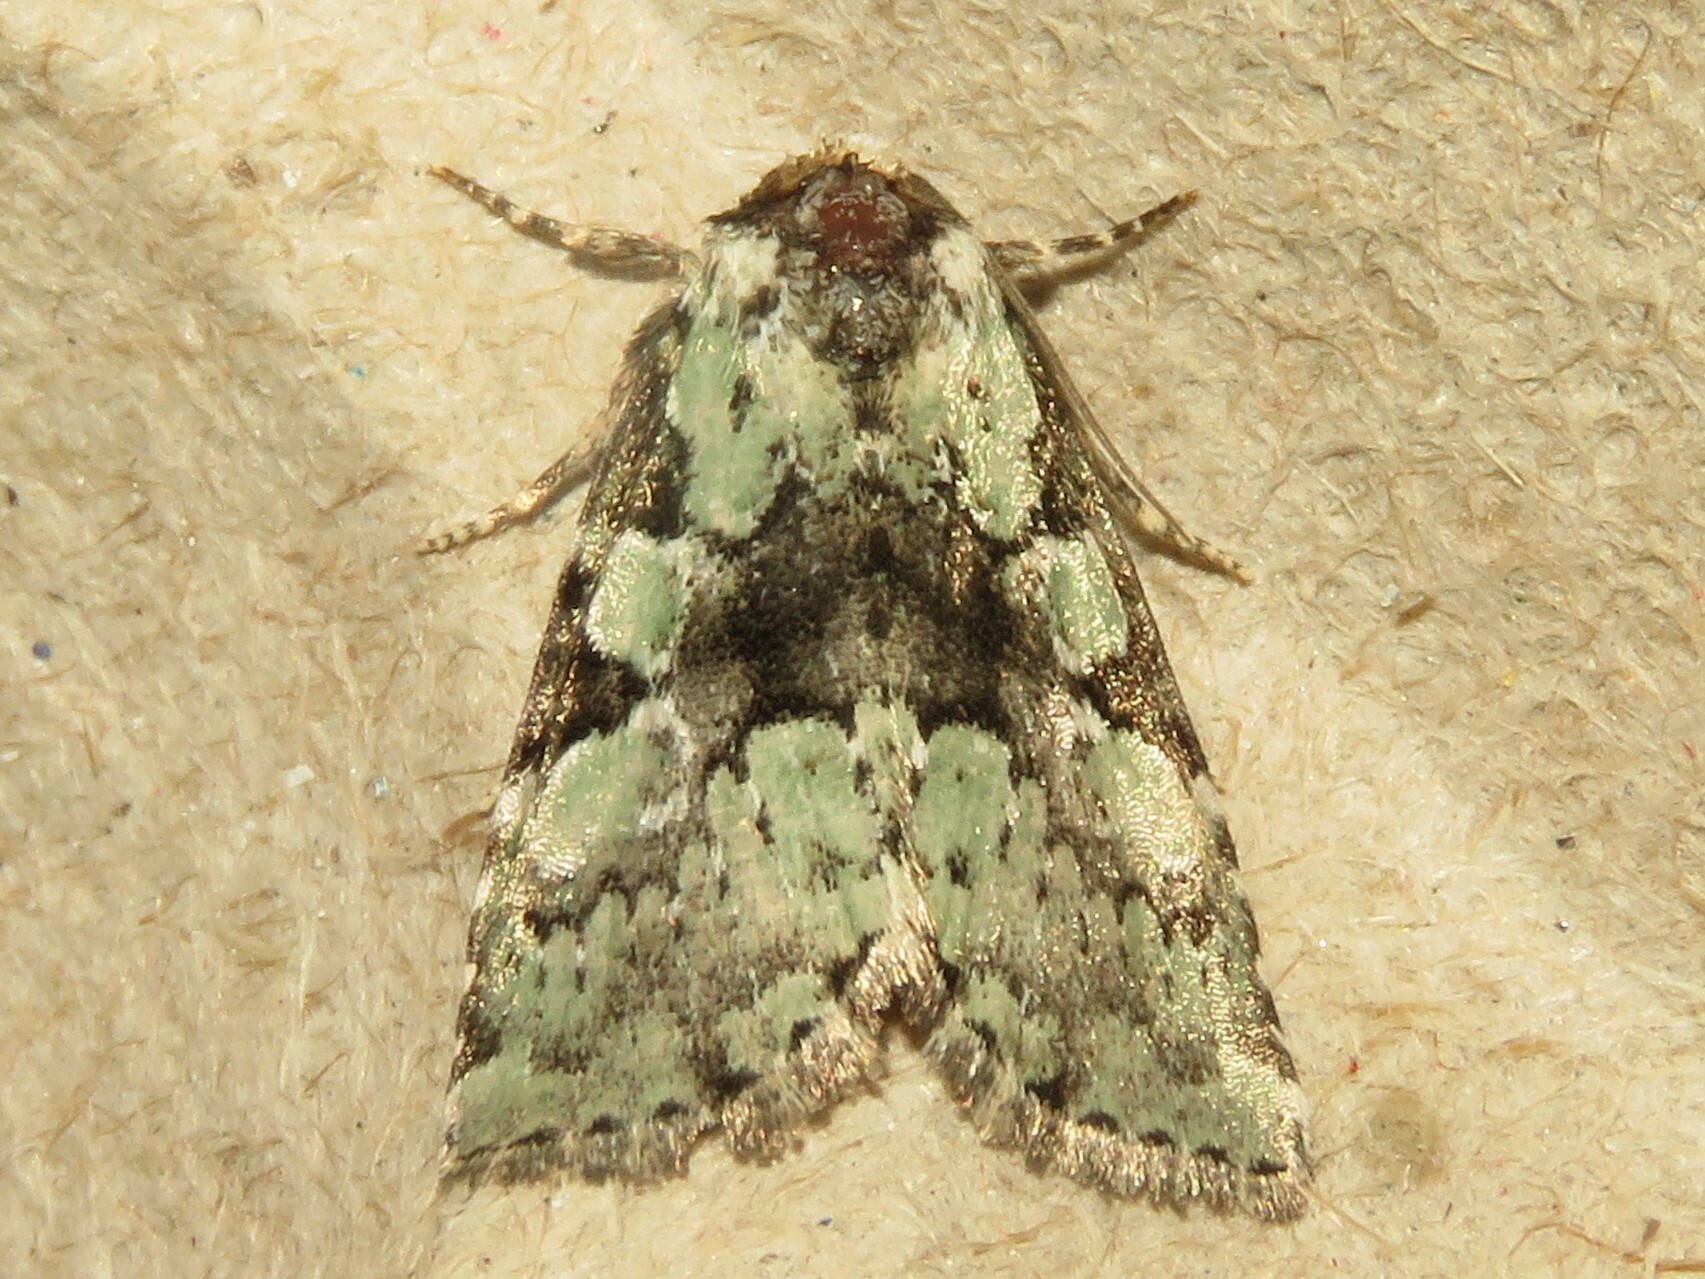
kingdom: Animalia
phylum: Arthropoda
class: Insecta
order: Lepidoptera
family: Noctuidae
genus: Leuconycta
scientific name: Leuconycta lepidula
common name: Marbled-green leuconycta moth
